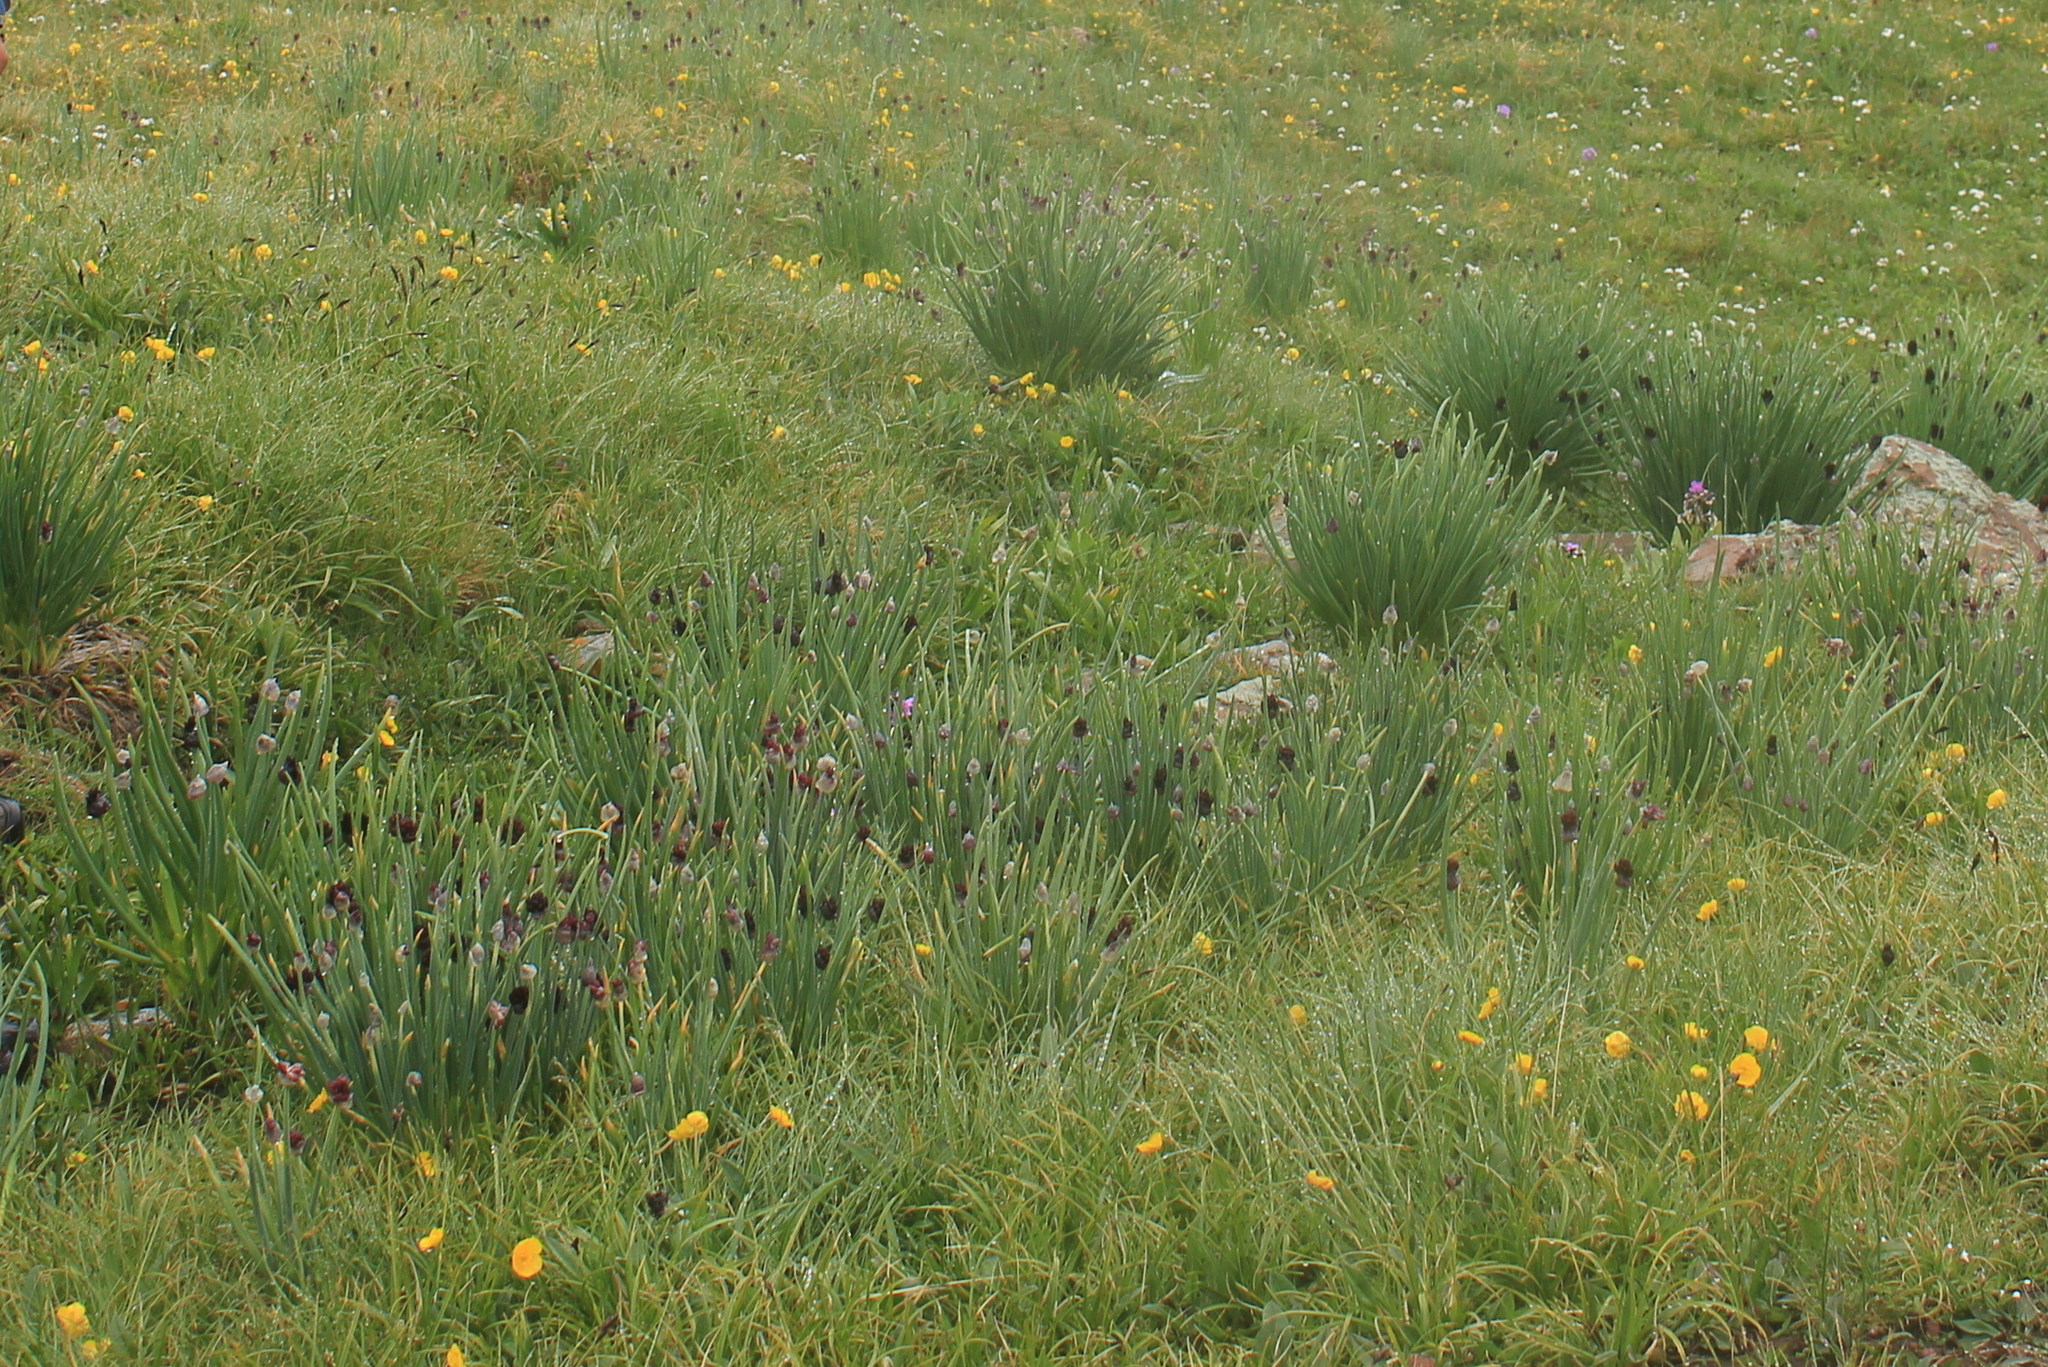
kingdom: Plantae
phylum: Tracheophyta
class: Liliopsida
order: Asparagales
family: Amaryllidaceae
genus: Allium
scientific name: Allium atrosanguineum
